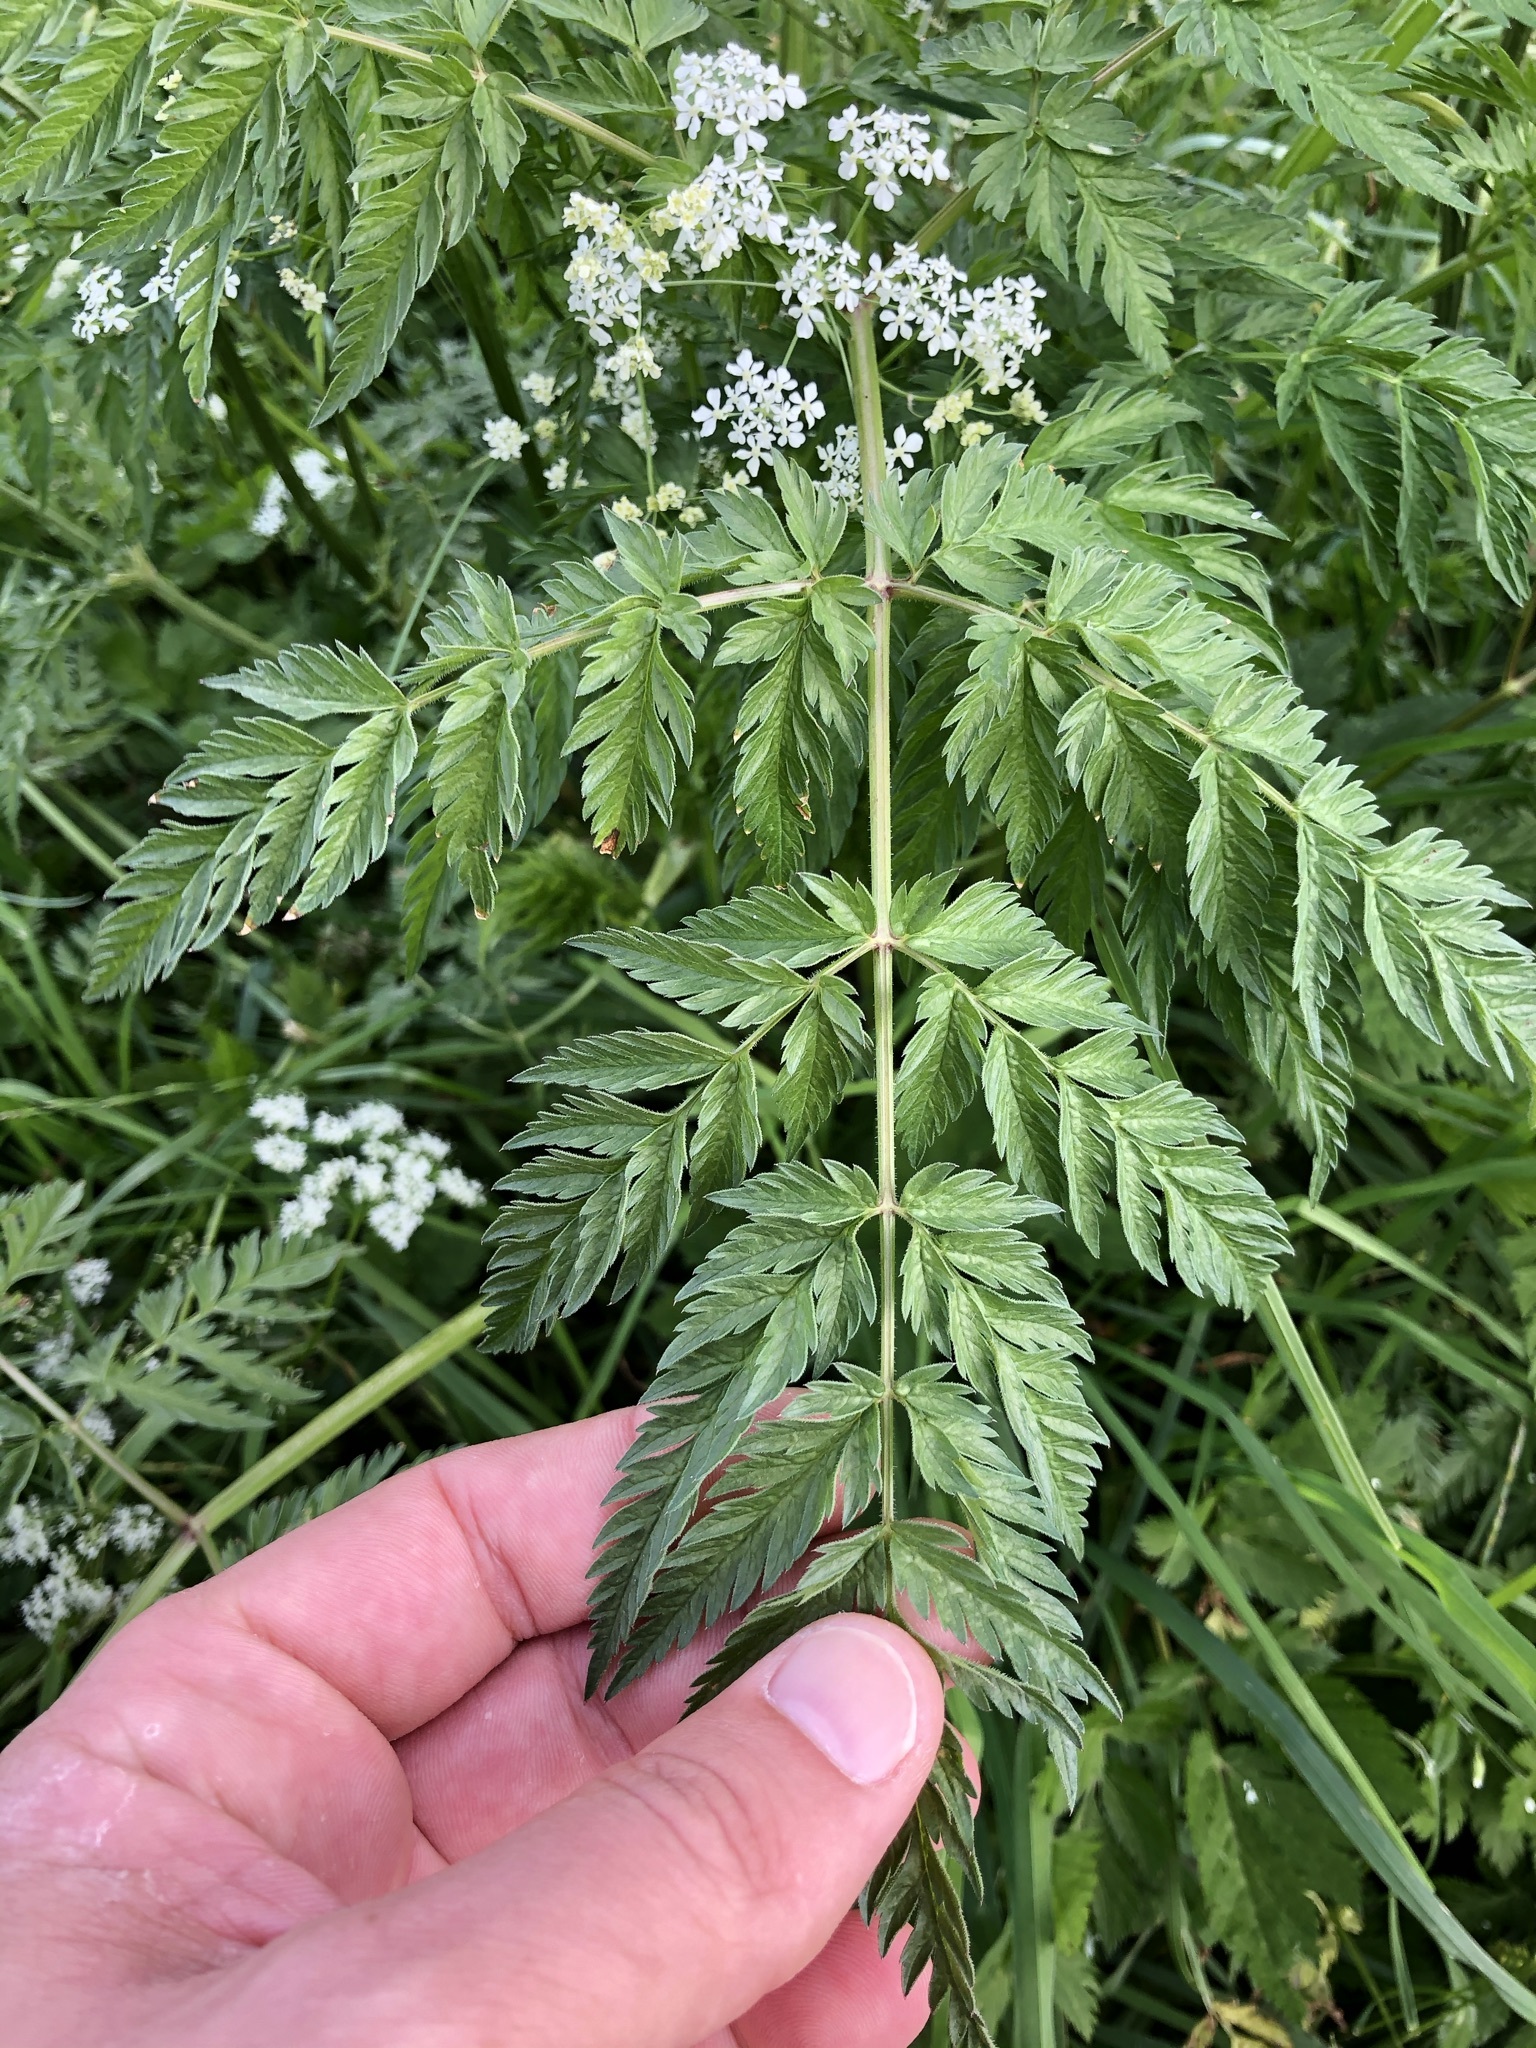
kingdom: Plantae
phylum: Tracheophyta
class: Magnoliopsida
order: Apiales
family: Apiaceae
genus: Anthriscus
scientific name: Anthriscus sylvestris
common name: Cow parsley
